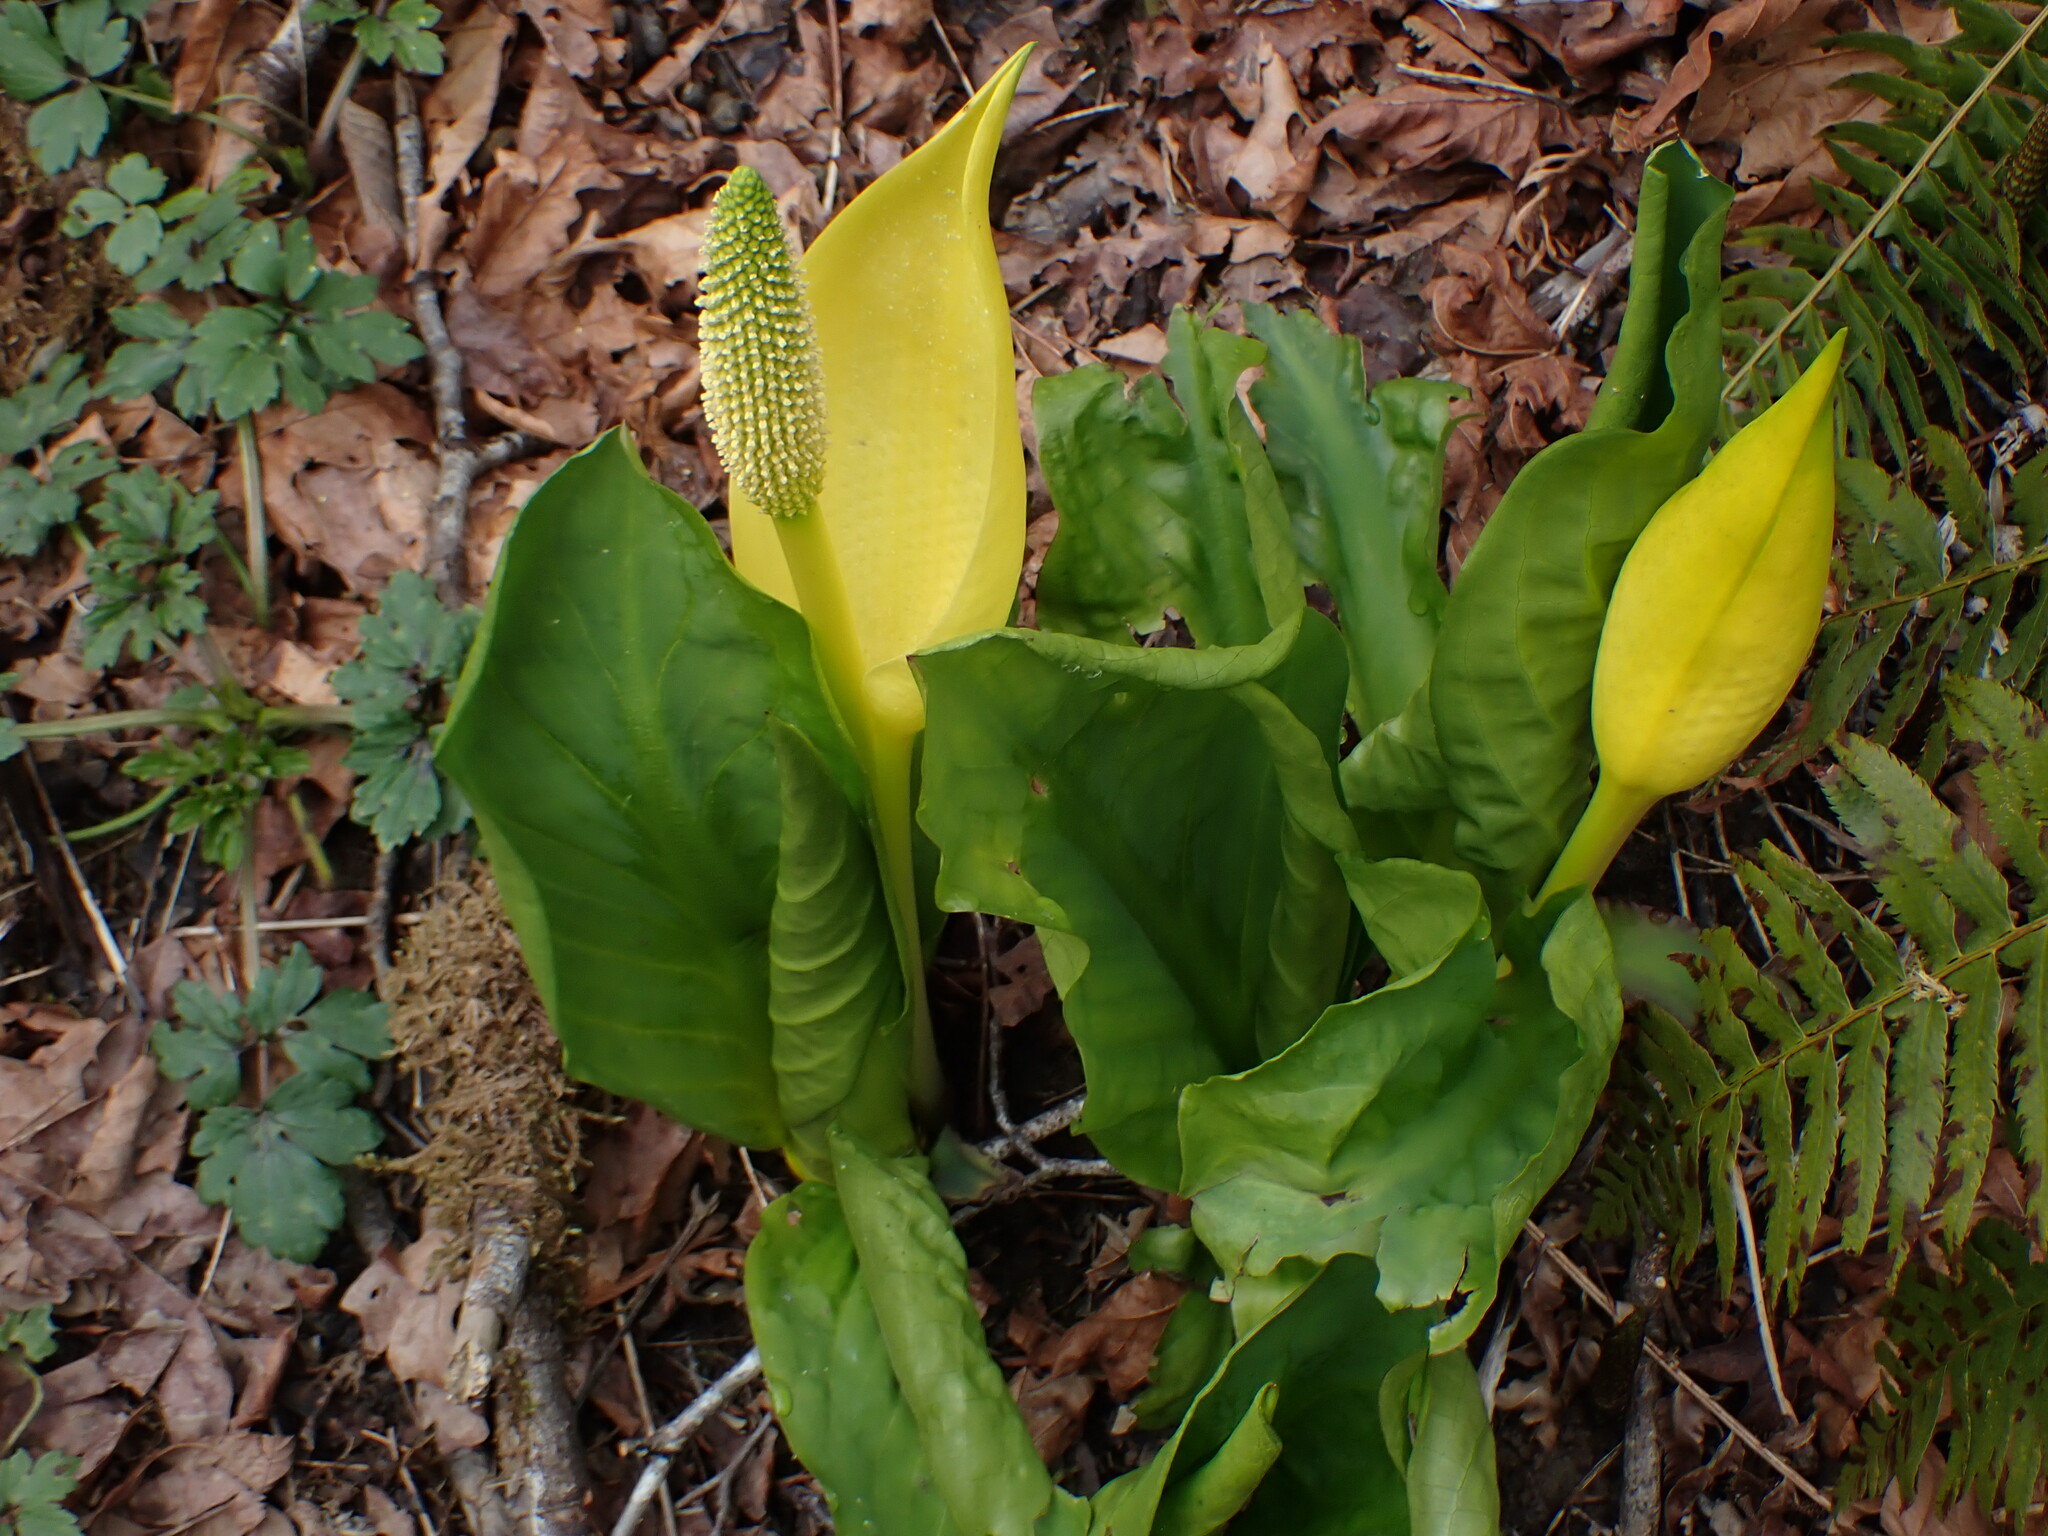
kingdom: Plantae
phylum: Tracheophyta
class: Liliopsida
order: Alismatales
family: Araceae
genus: Lysichiton
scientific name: Lysichiton americanus
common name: American skunk cabbage
